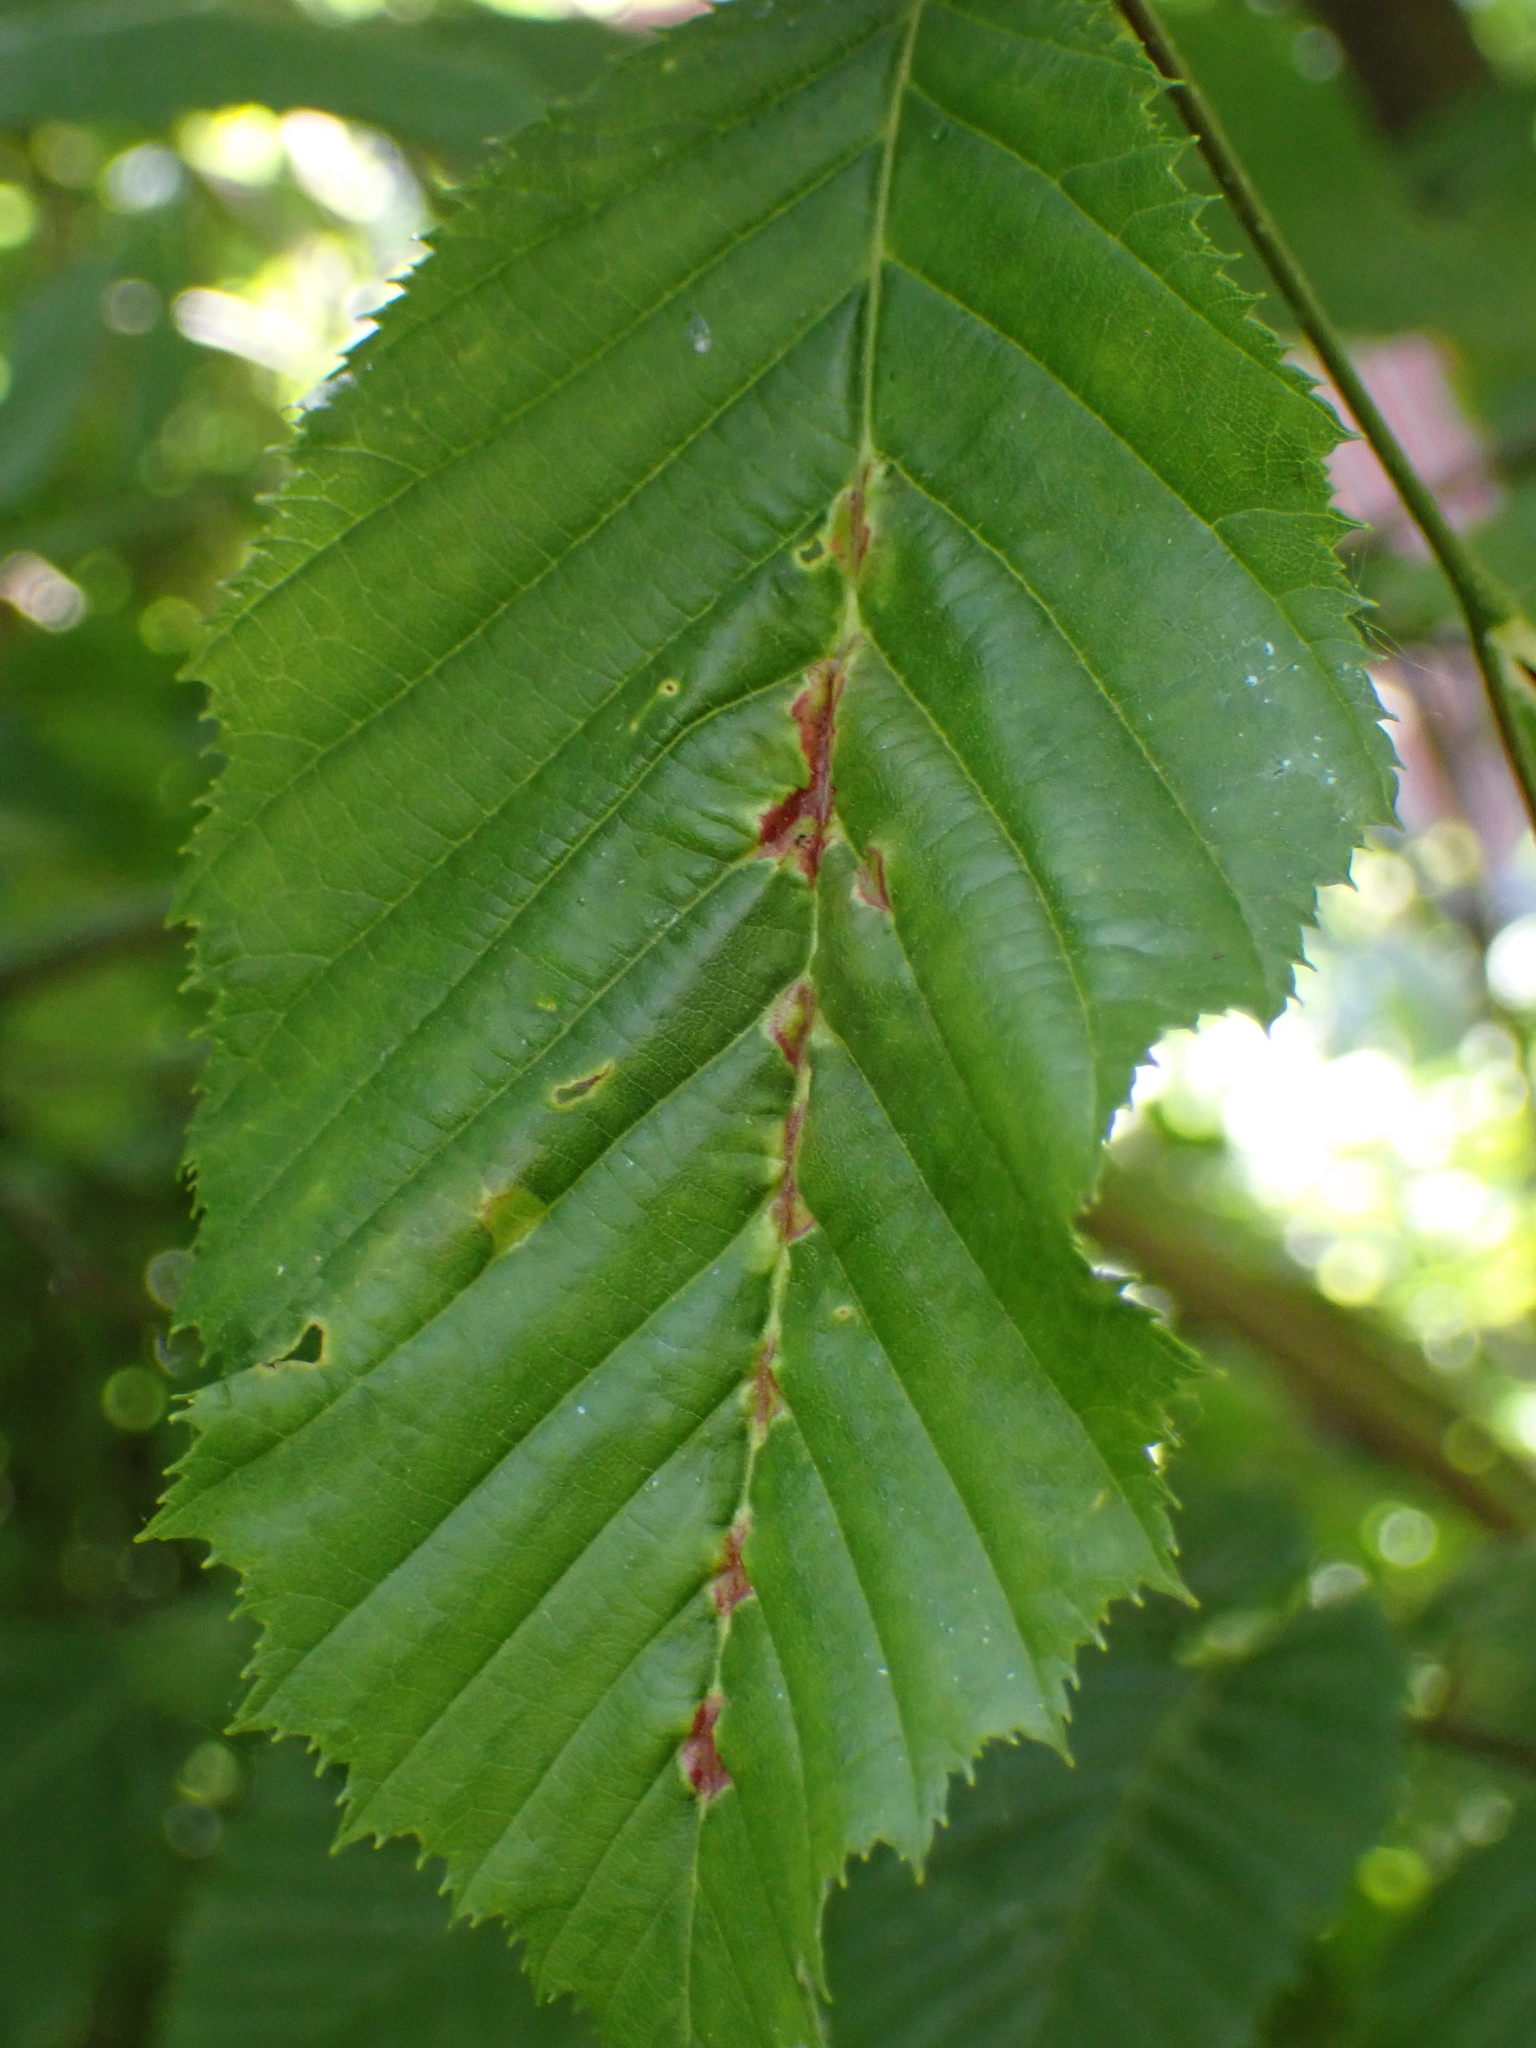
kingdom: Animalia
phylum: Arthropoda
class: Insecta
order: Diptera
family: Cecidomyiidae
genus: Zygiobia
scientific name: Zygiobia carpini
